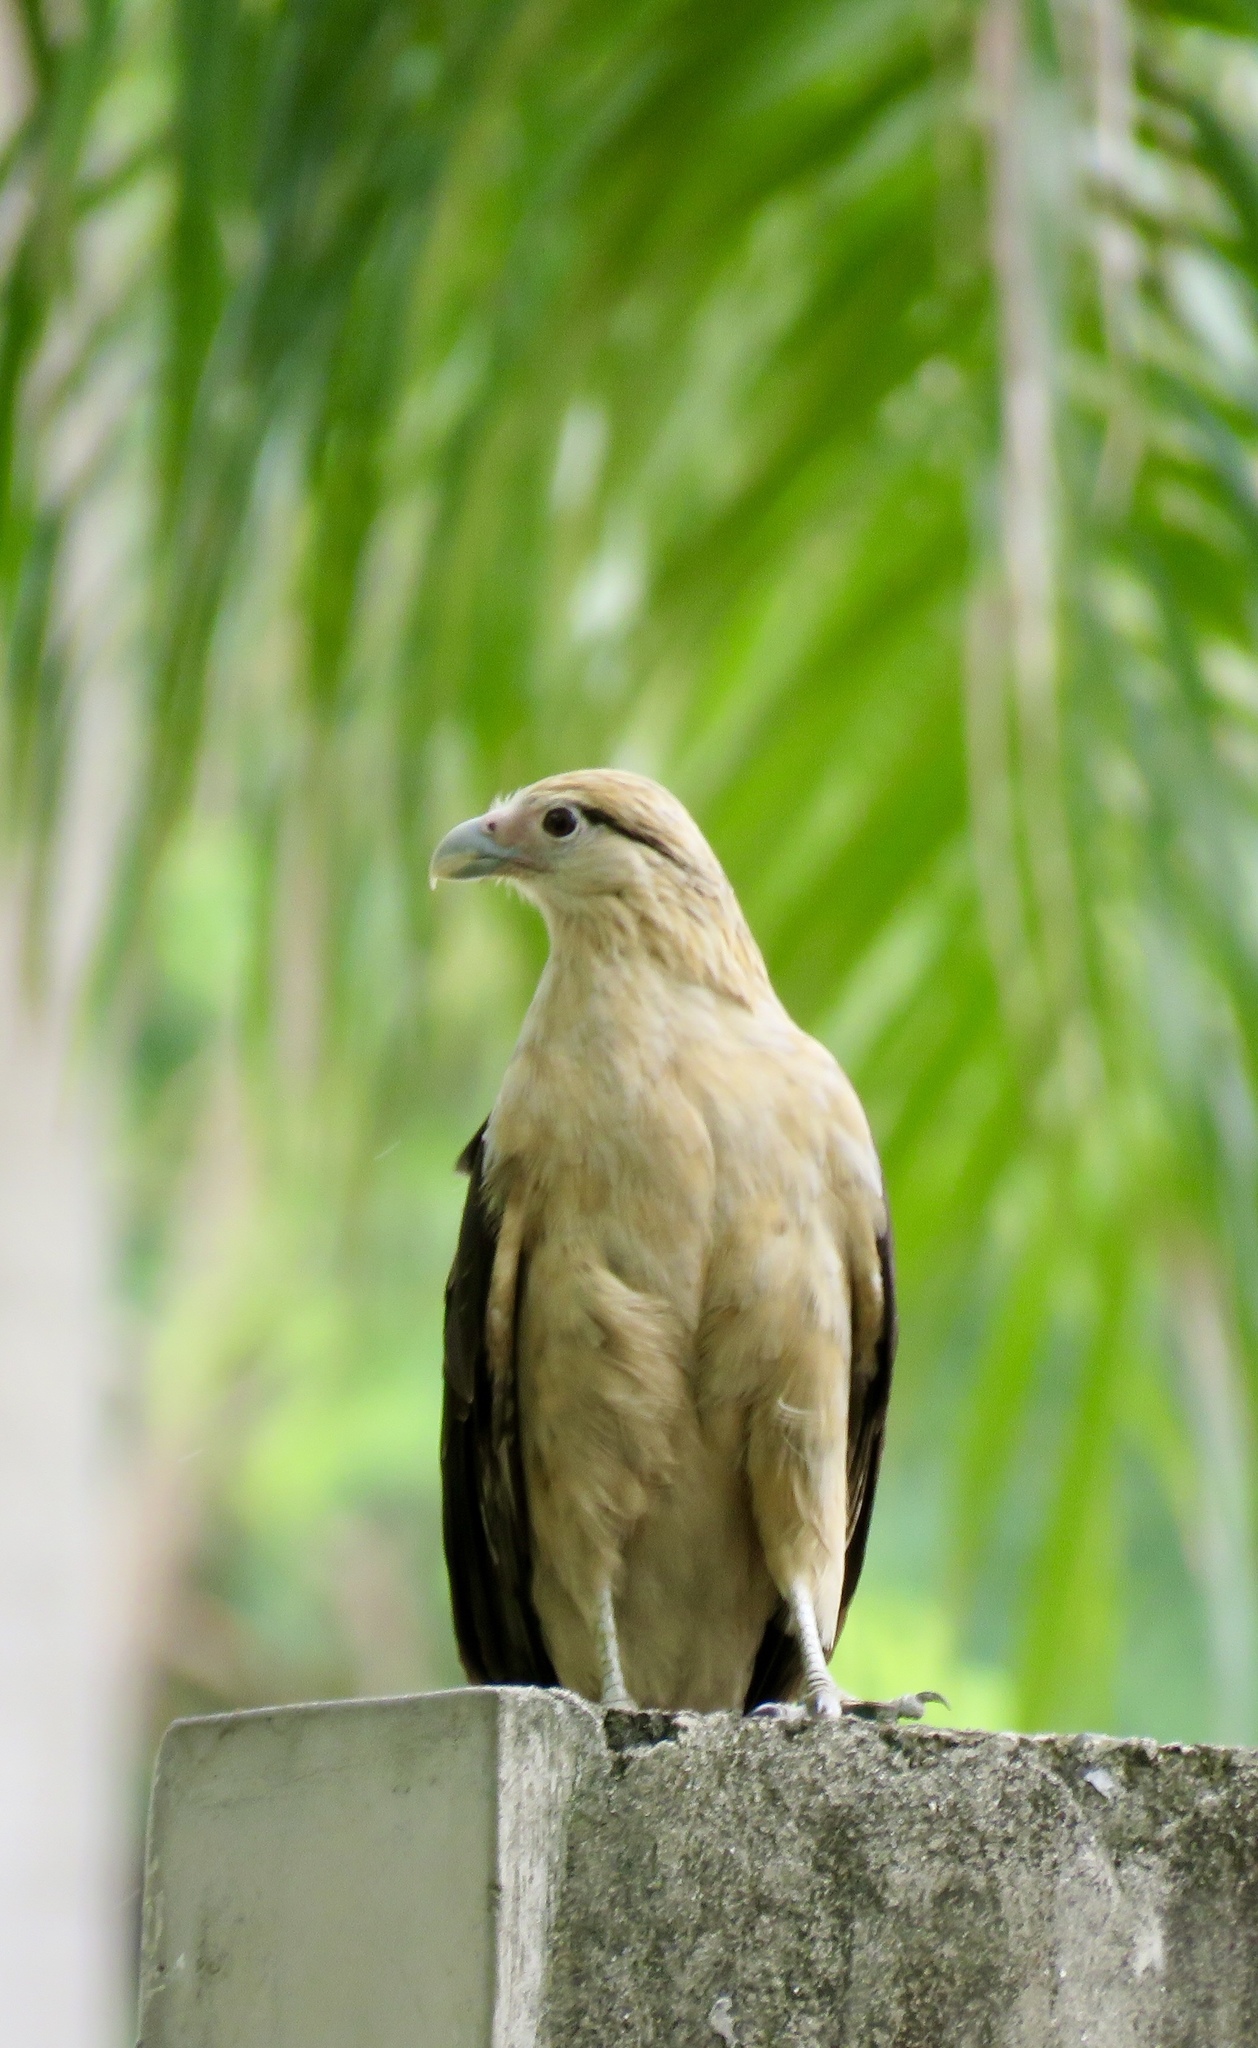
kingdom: Animalia
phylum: Chordata
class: Aves
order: Falconiformes
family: Falconidae
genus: Daptrius
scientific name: Daptrius
